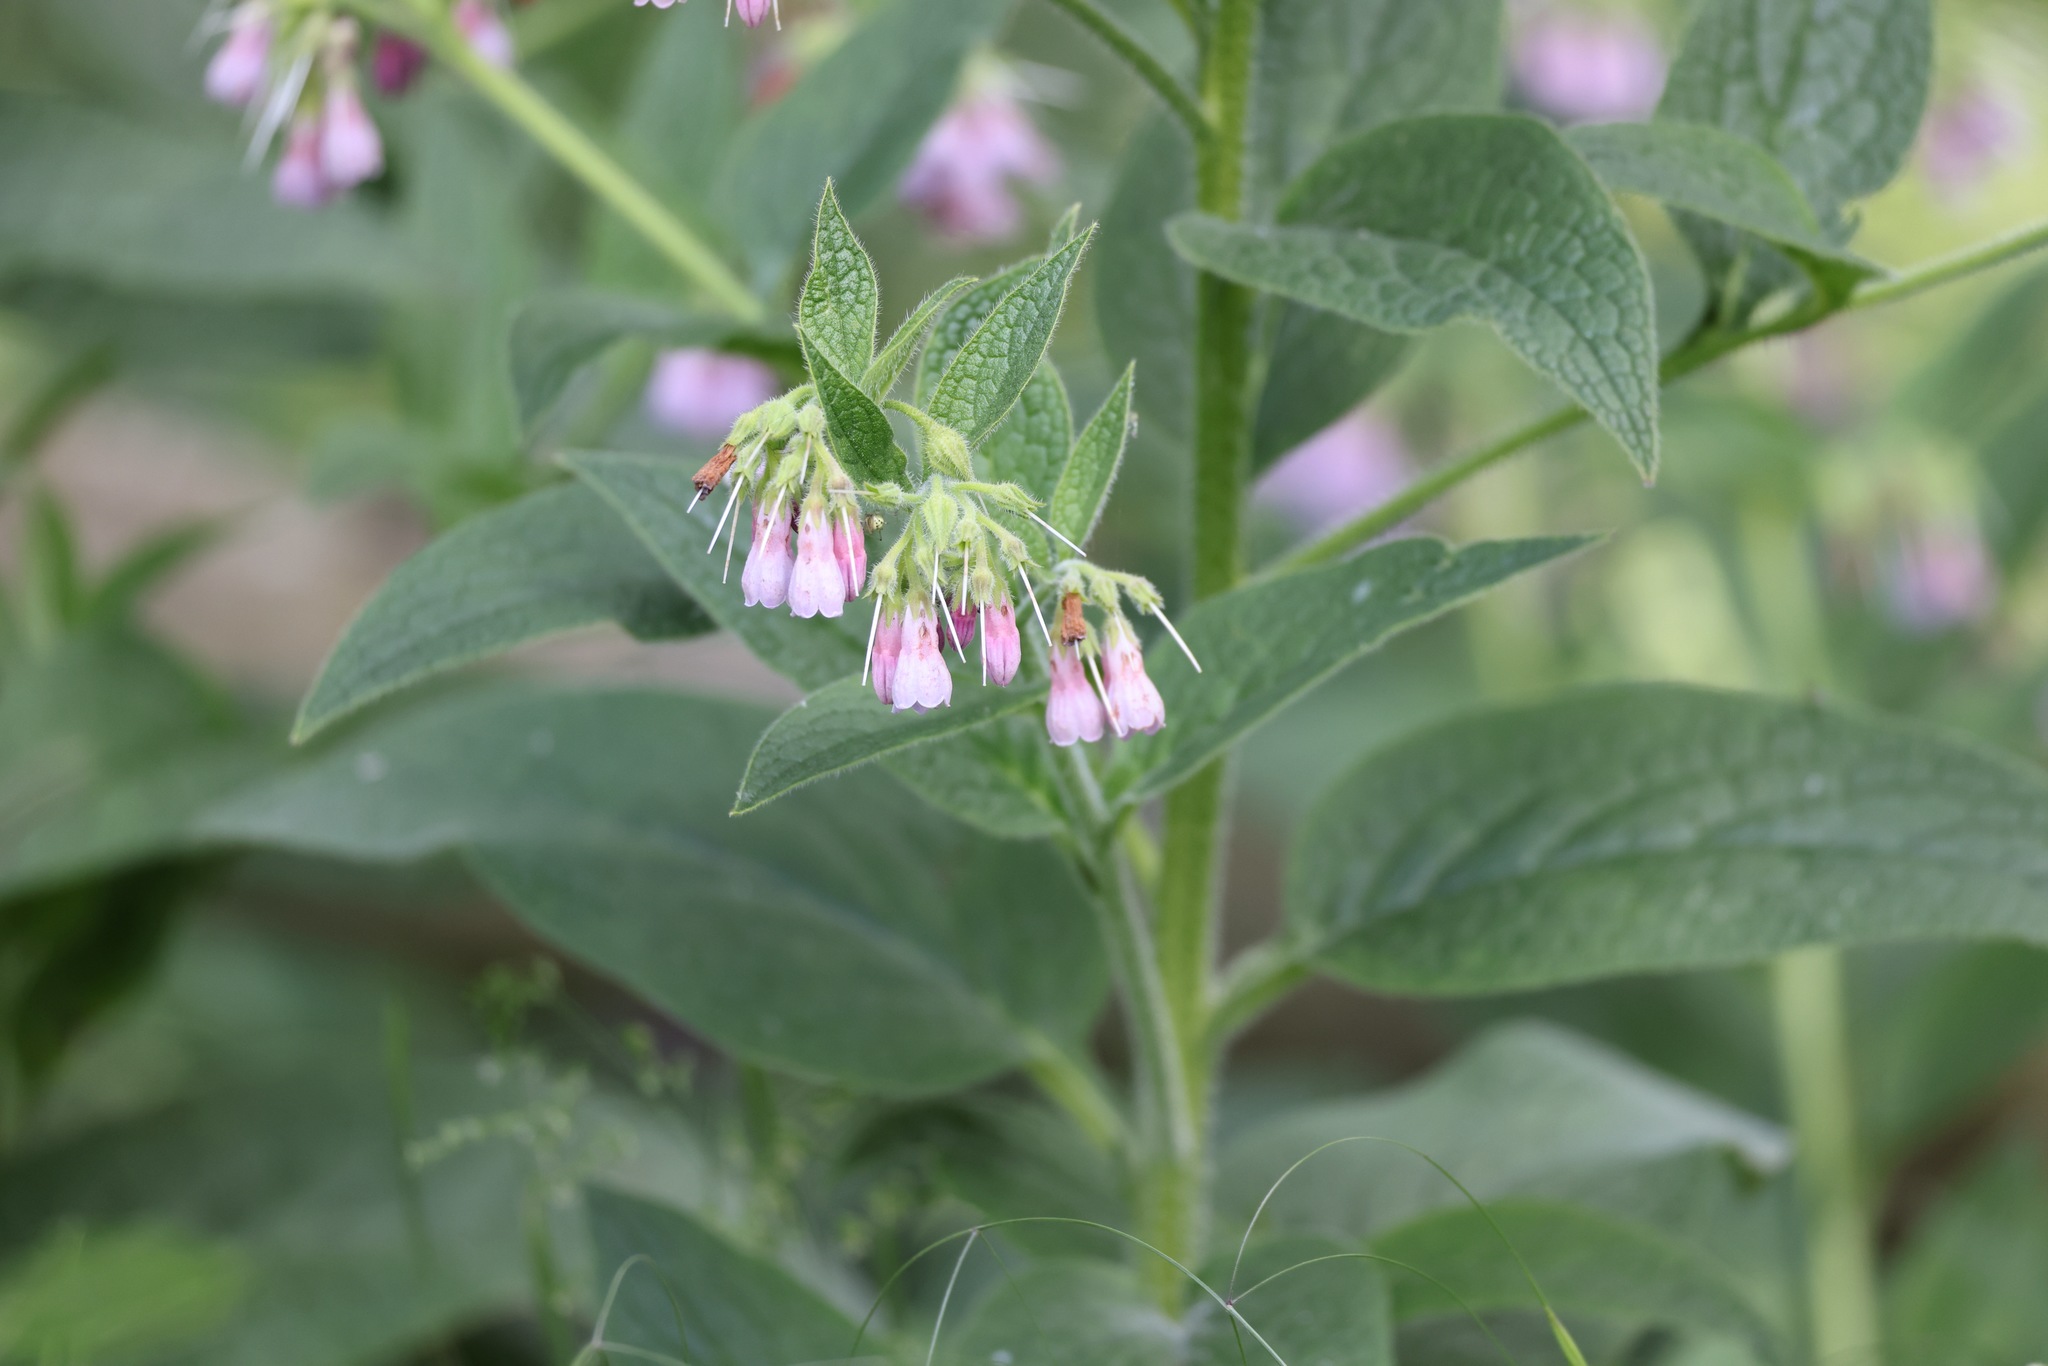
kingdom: Plantae
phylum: Tracheophyta
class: Magnoliopsida
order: Boraginales
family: Boraginaceae
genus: Symphytum
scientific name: Symphytum officinale
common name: Common comfrey
